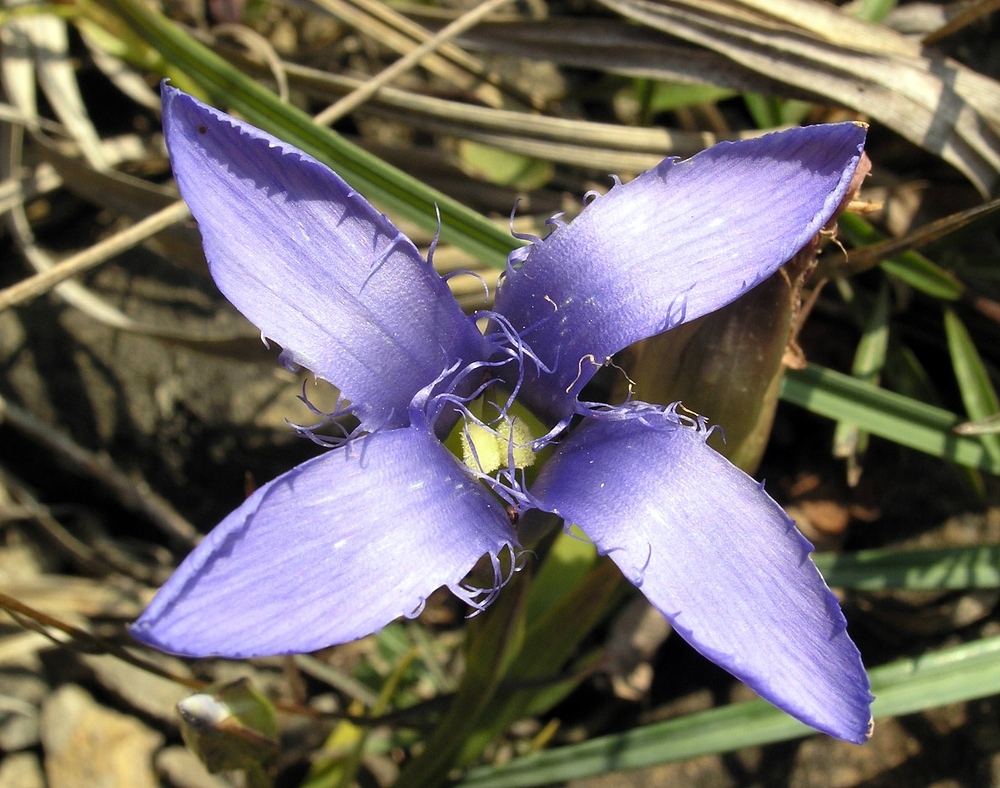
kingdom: Plantae
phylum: Tracheophyta
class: Magnoliopsida
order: Gentianales
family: Gentianaceae
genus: Gentianopsis
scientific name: Gentianopsis ciliata
